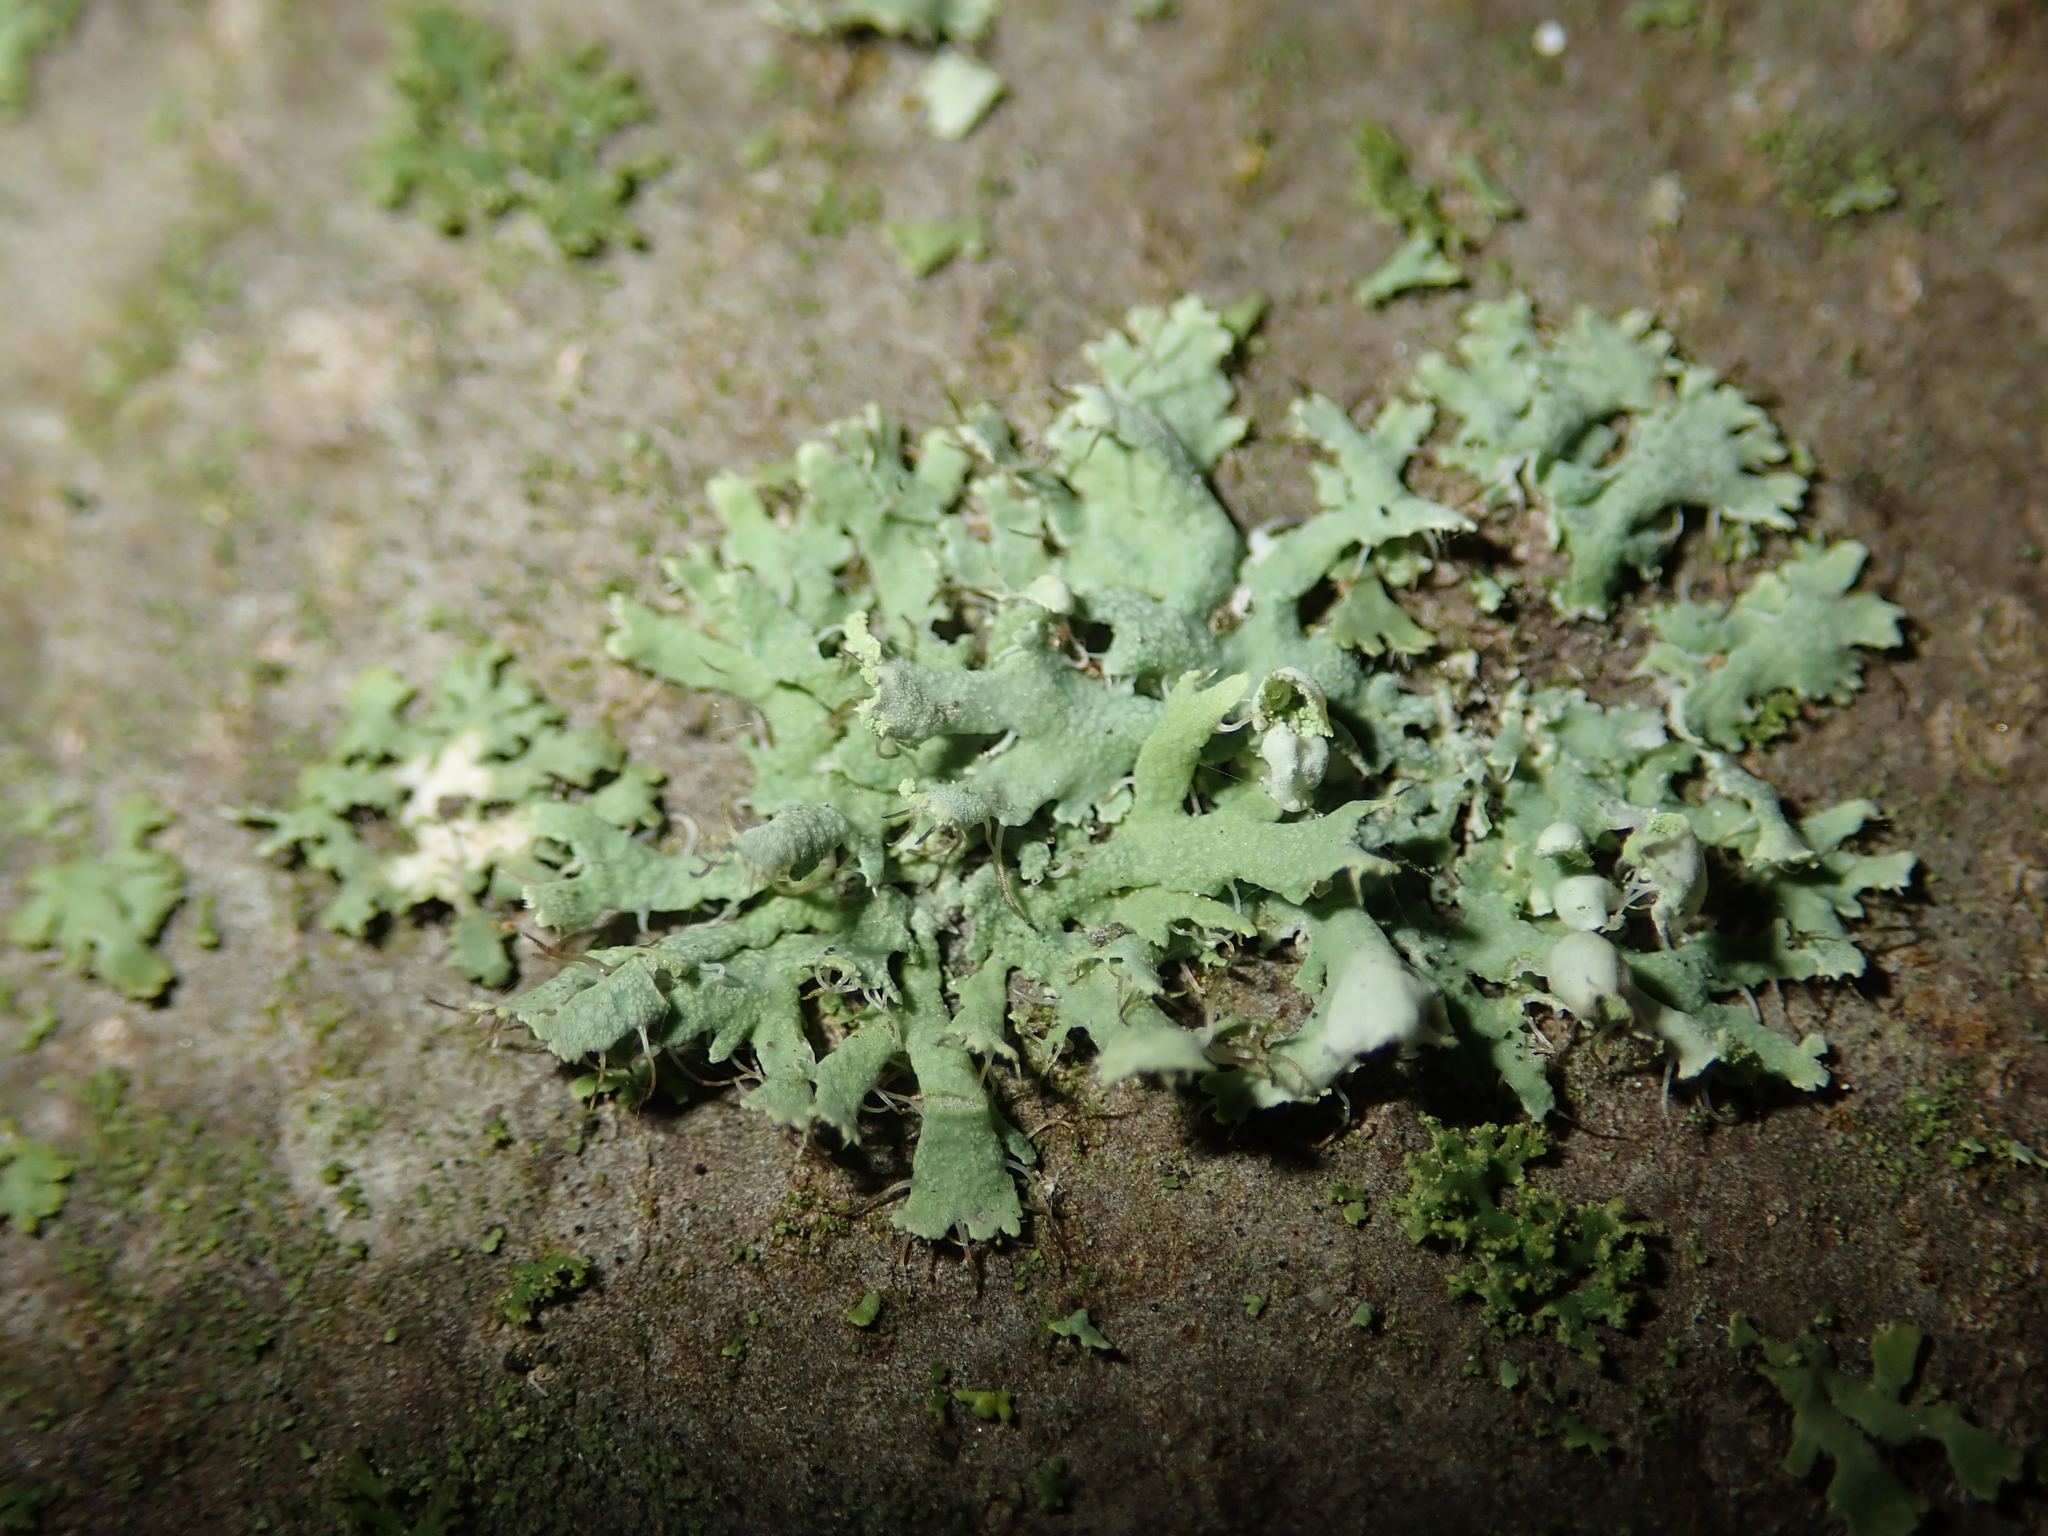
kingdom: Fungi
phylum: Ascomycota
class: Lecanoromycetes
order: Caliciales
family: Physciaceae
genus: Physcia
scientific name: Physcia adscendens
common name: Hooded rosette lichen
